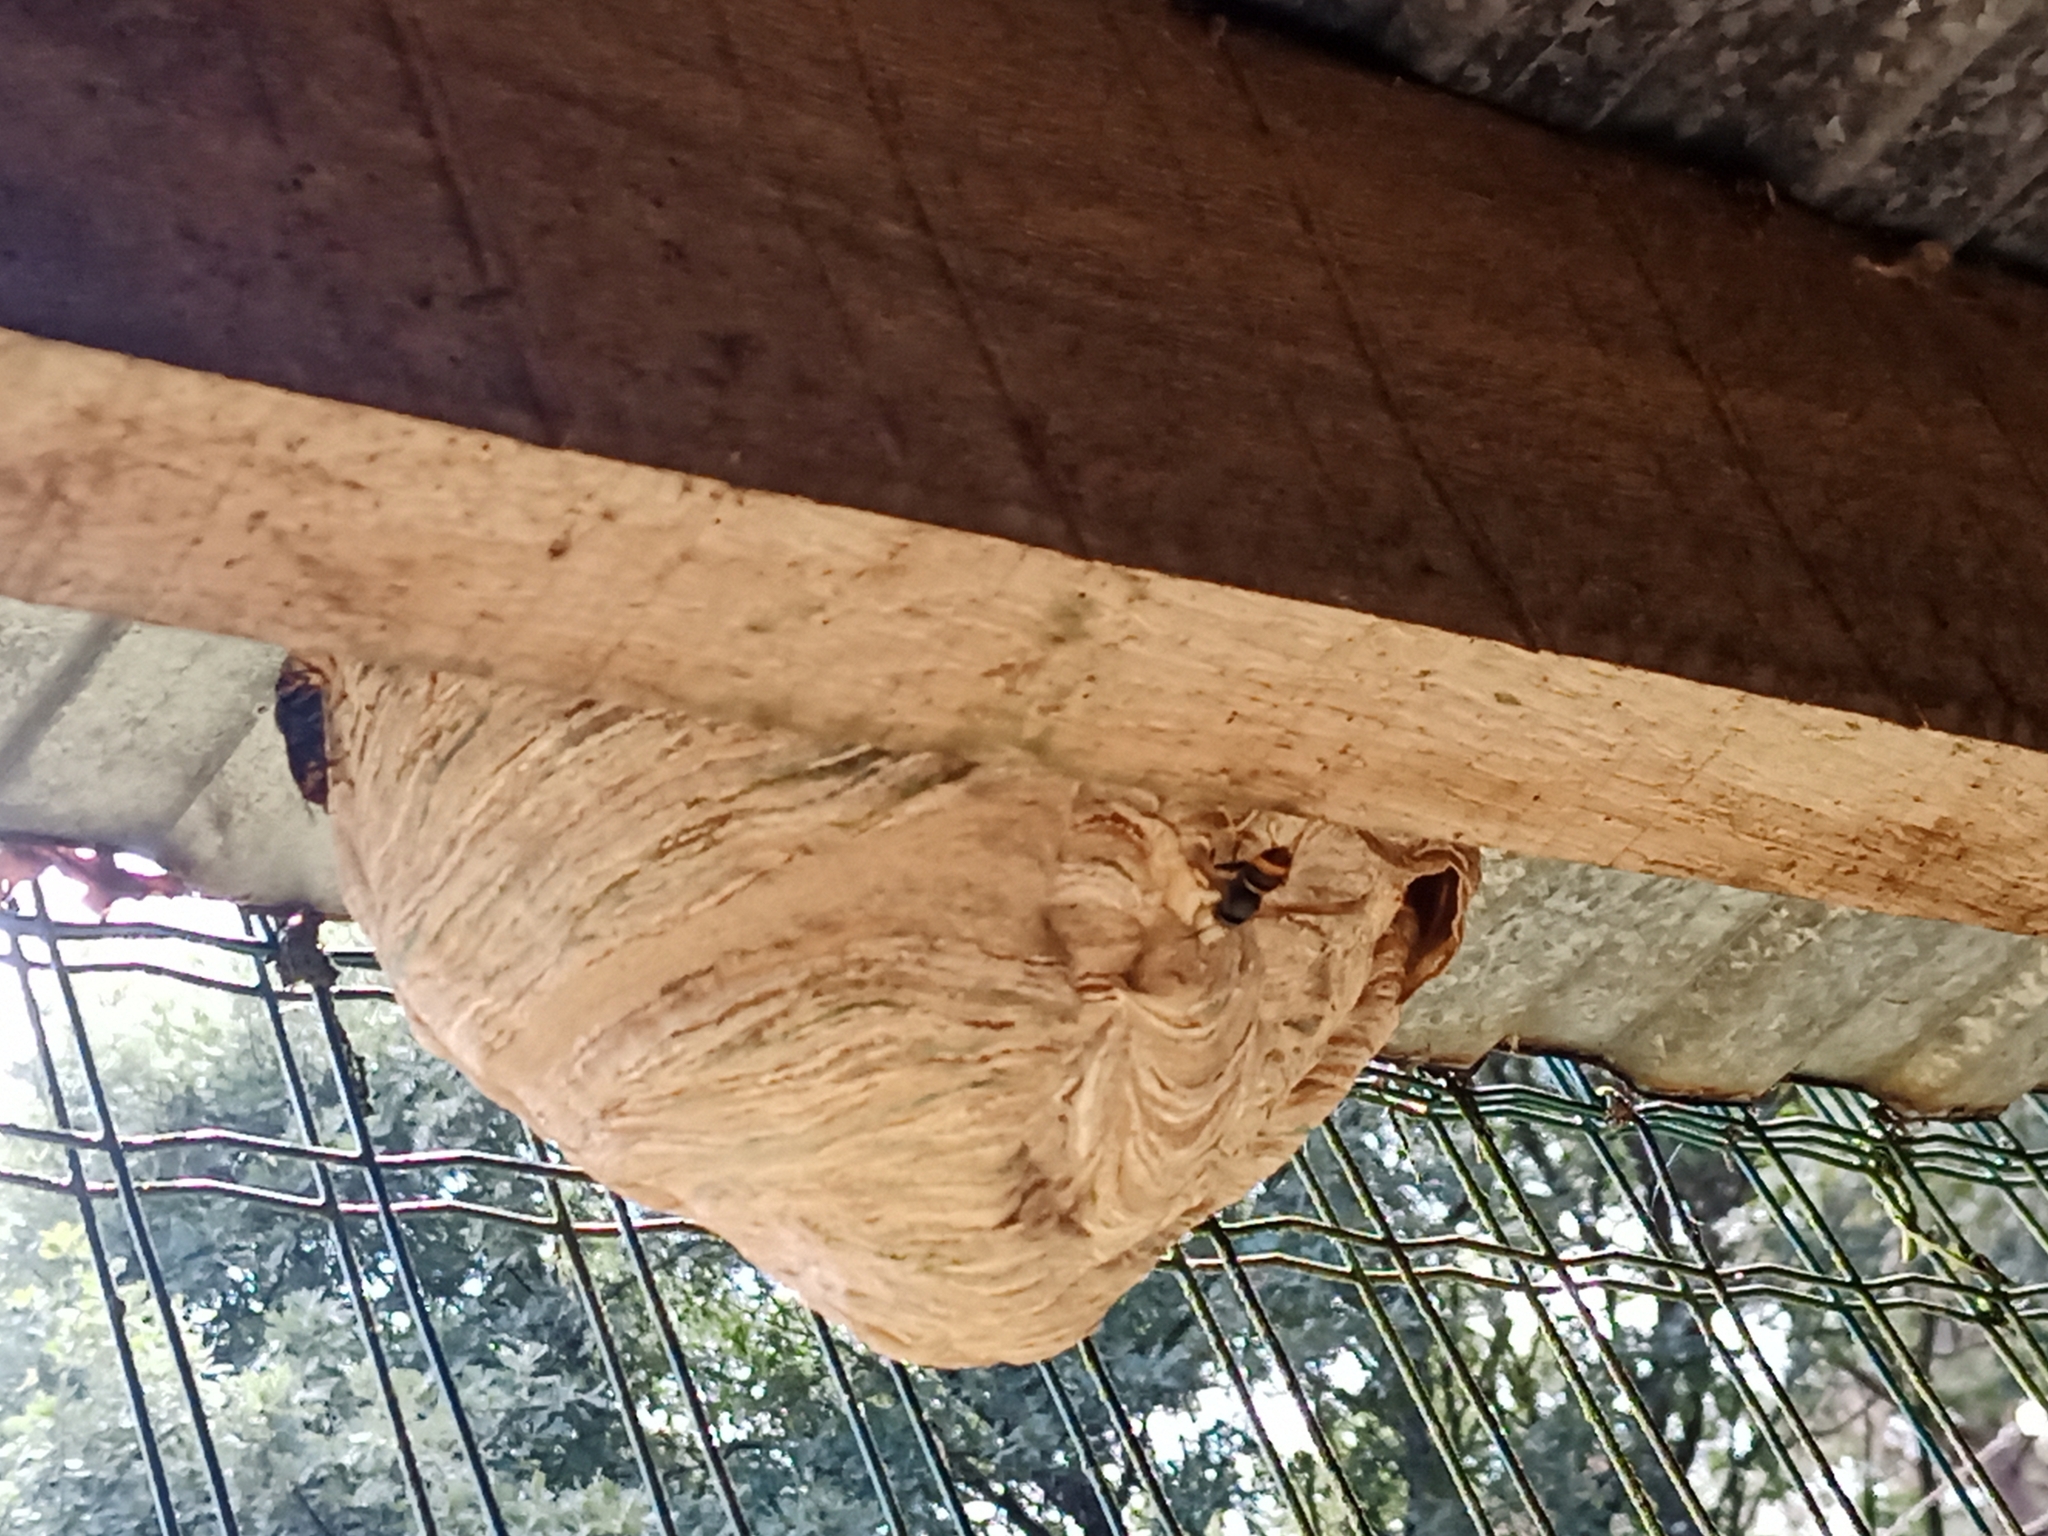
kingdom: Animalia
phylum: Arthropoda
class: Insecta
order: Hymenoptera
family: Vespidae
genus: Vespa
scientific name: Vespa velutina
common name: Asian hornet
